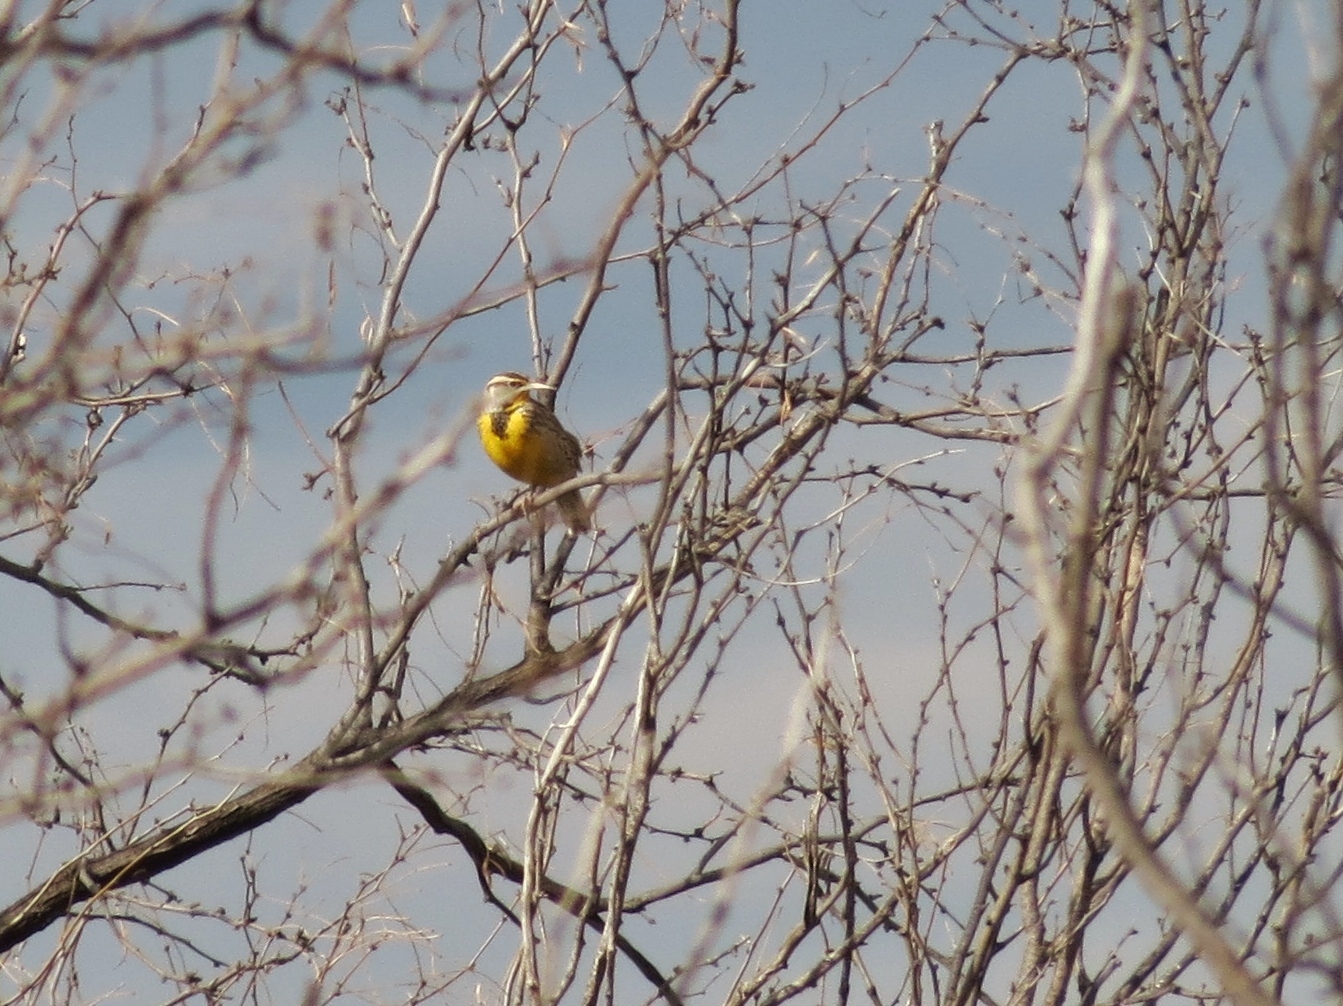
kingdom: Animalia
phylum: Chordata
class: Aves
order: Passeriformes
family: Icteridae
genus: Sturnella
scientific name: Sturnella magna
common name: Eastern meadowlark
